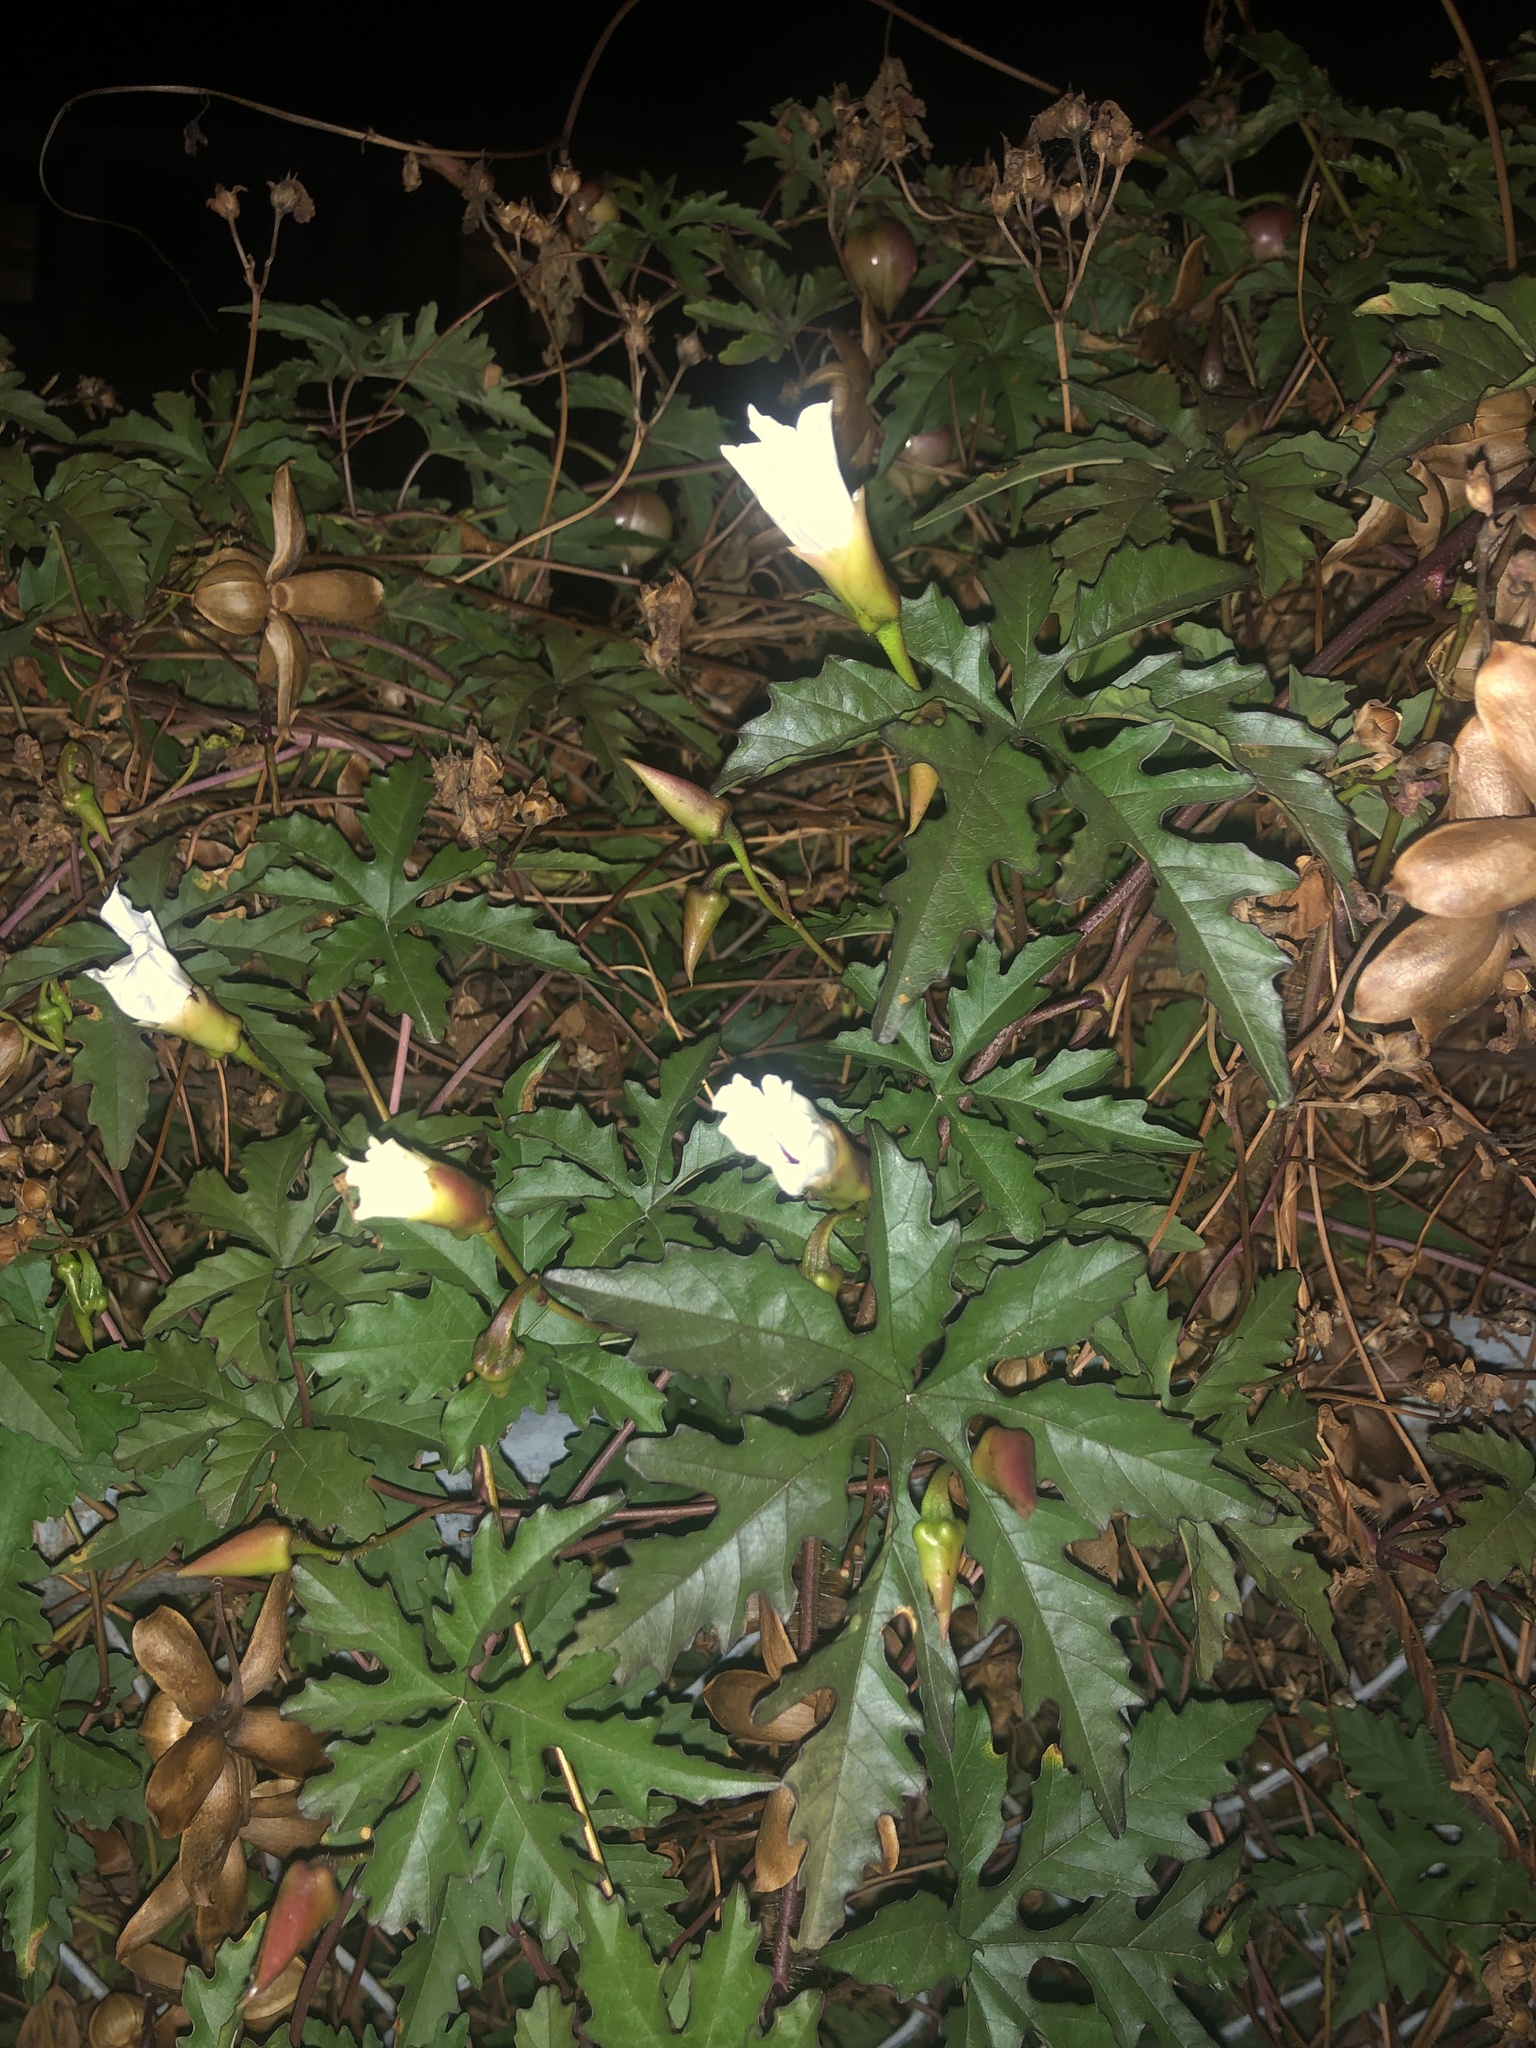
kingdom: Plantae
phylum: Tracheophyta
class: Magnoliopsida
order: Solanales
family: Convolvulaceae
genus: Distimake
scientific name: Distimake dissectus
